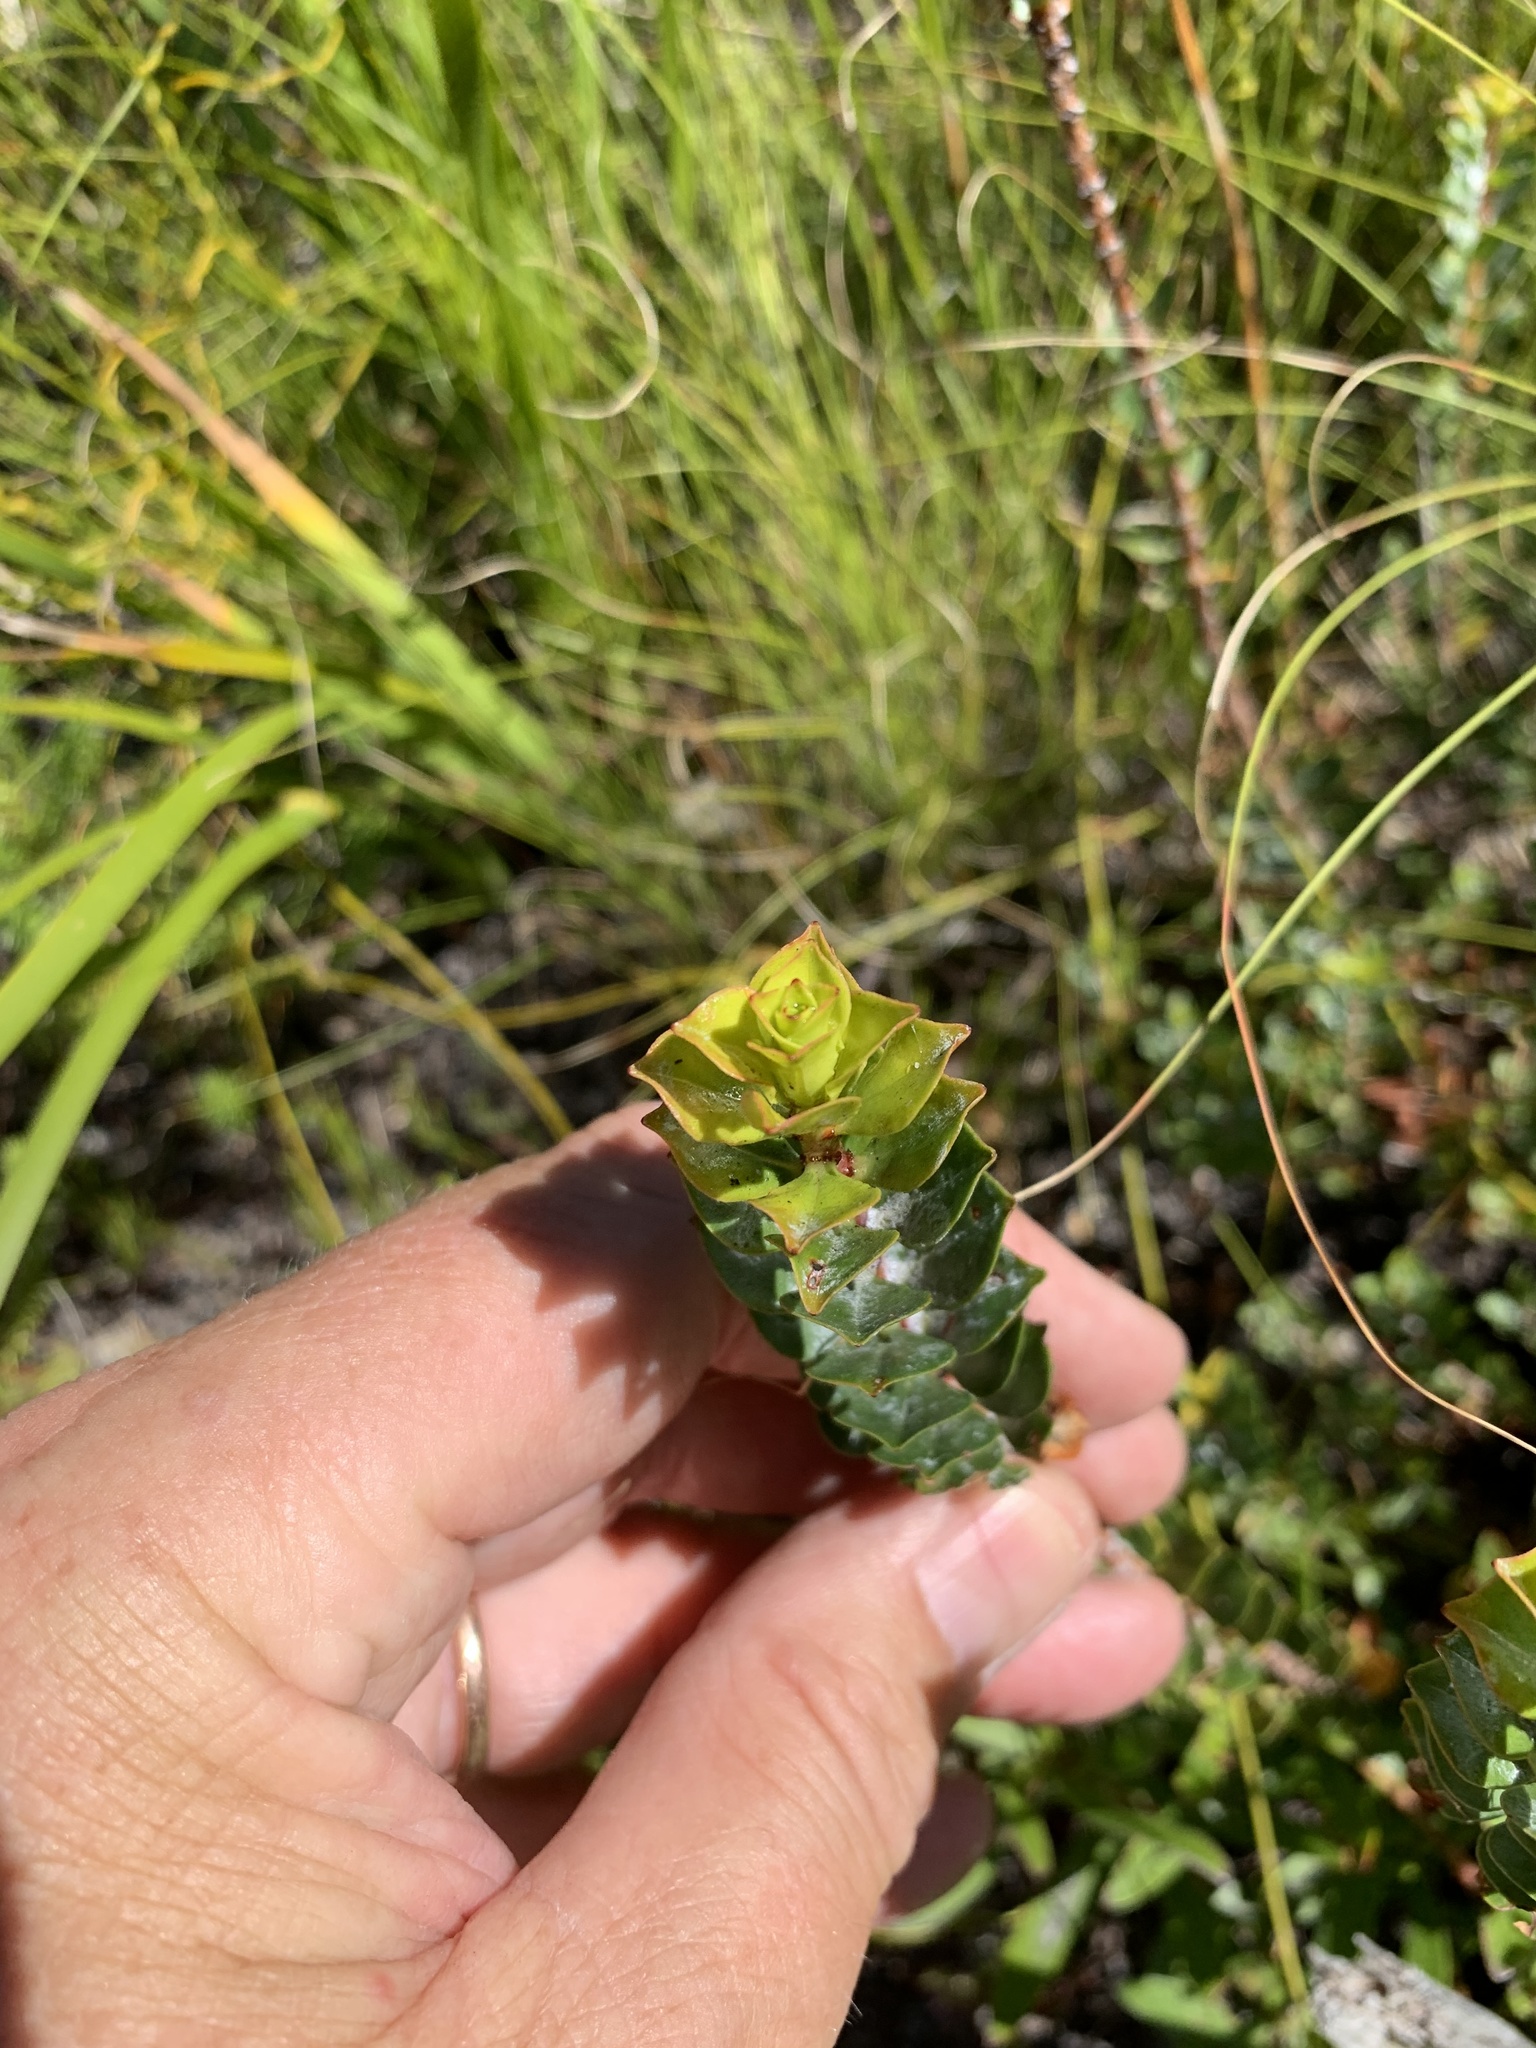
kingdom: Plantae
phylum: Tracheophyta
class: Magnoliopsida
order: Myrtales
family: Penaeaceae
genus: Saltera
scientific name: Saltera sarcocolla
